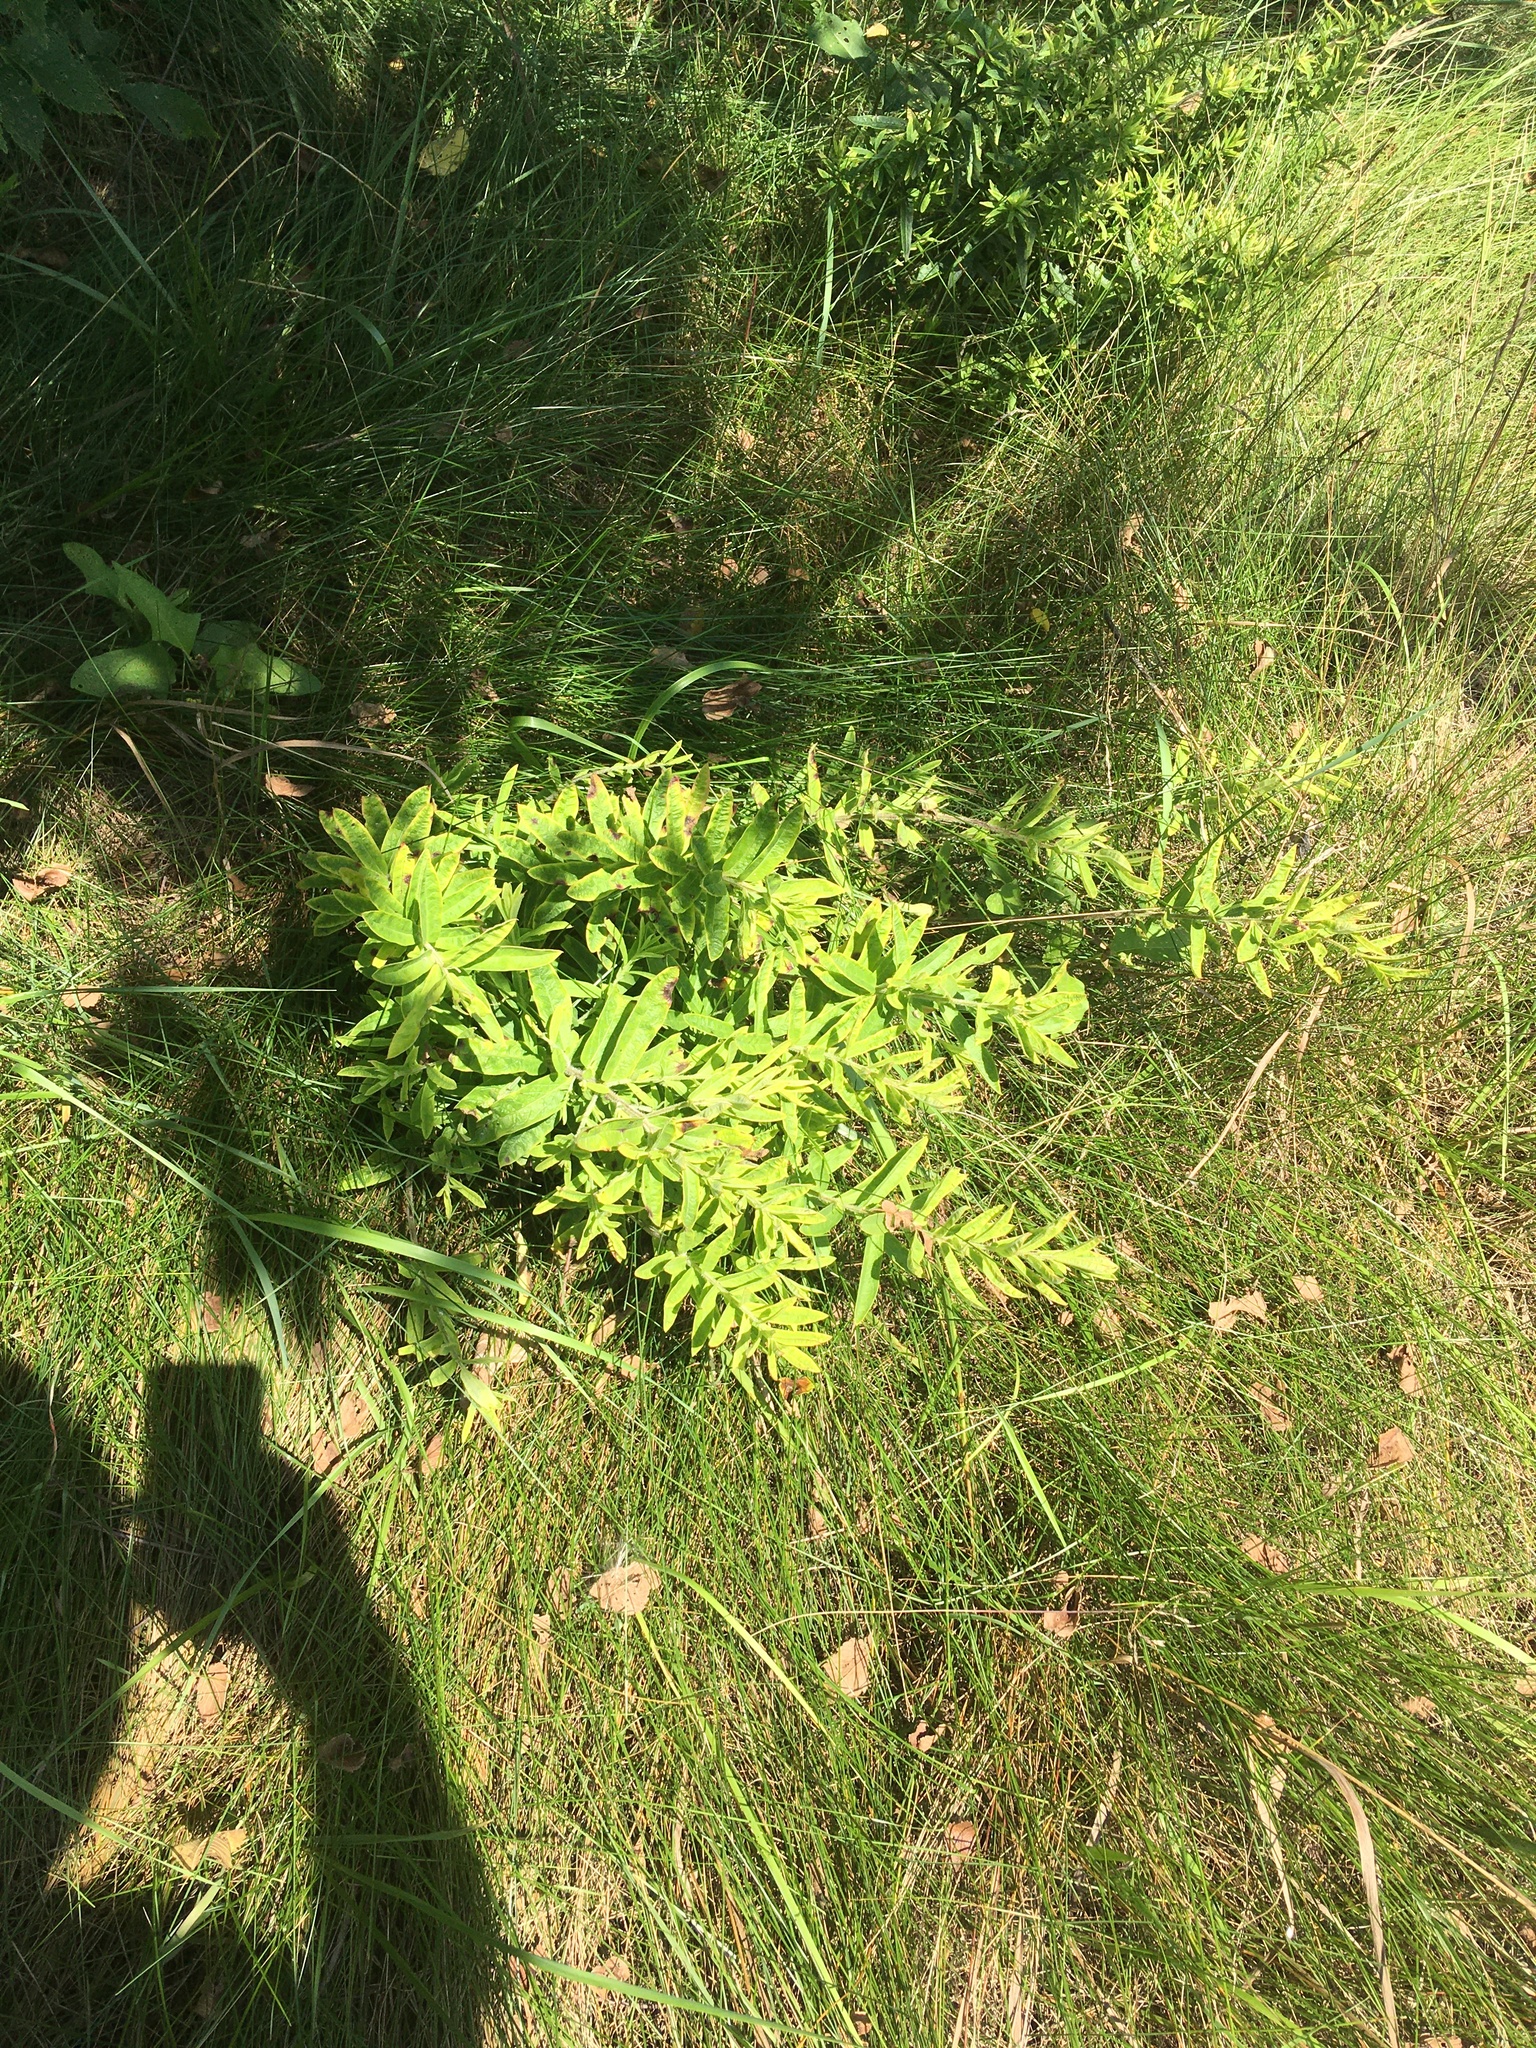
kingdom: Plantae
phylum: Tracheophyta
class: Magnoliopsida
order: Gentianales
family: Apocynaceae
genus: Asclepias
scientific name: Asclepias tuberosa
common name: Butterfly milkweed
